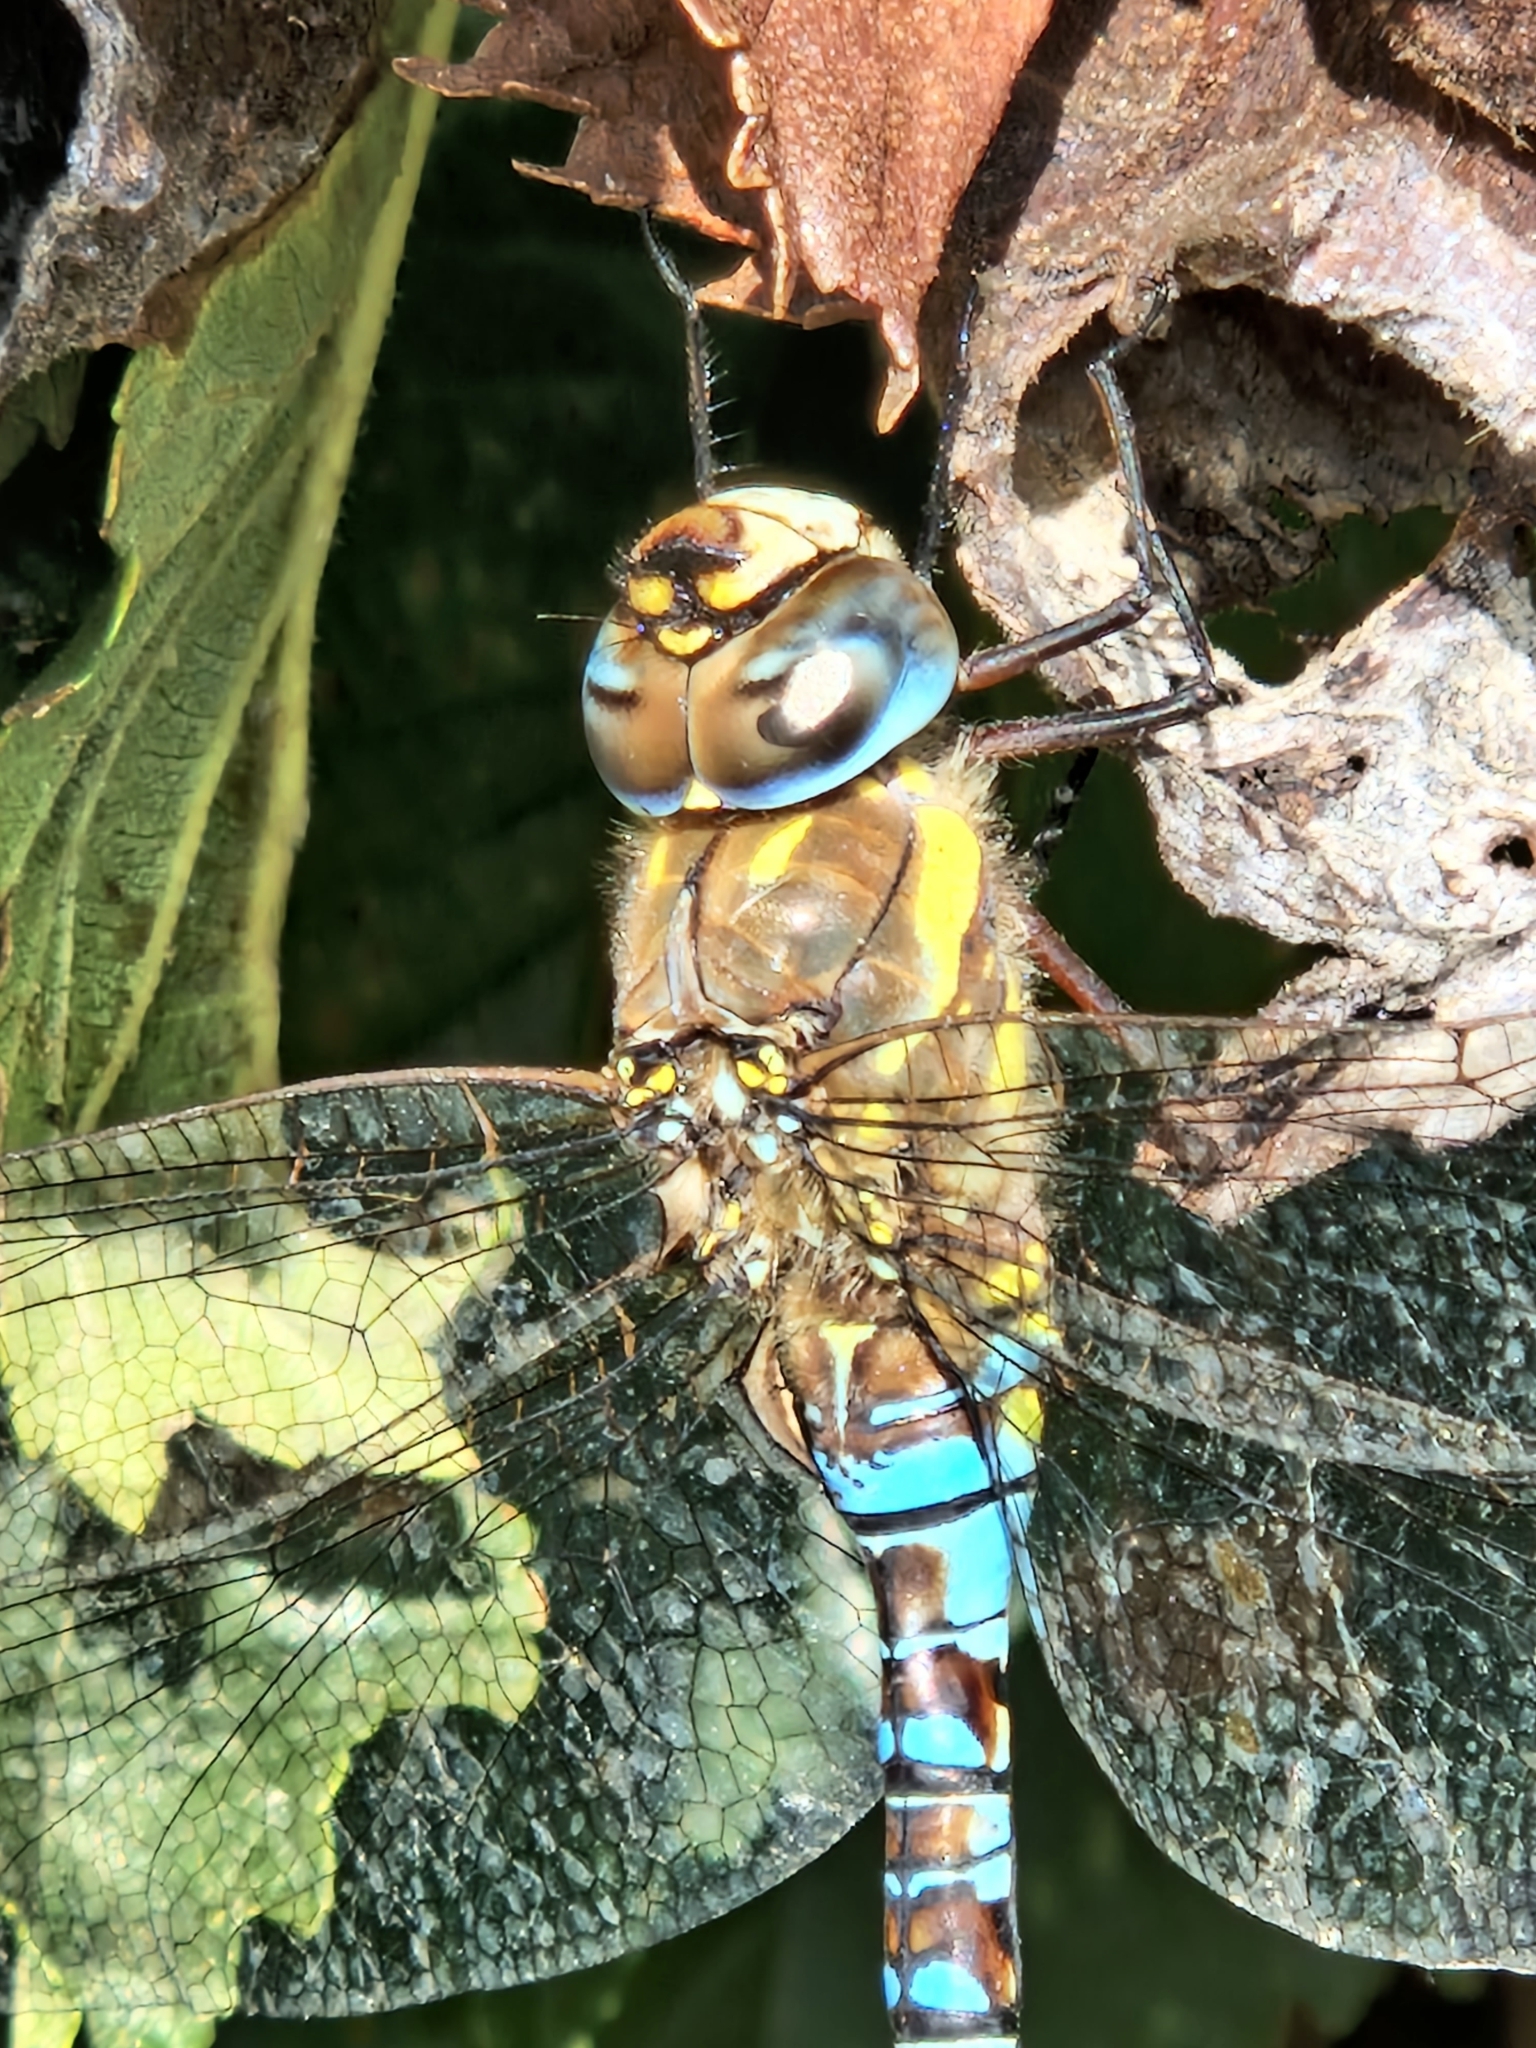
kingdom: Animalia
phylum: Arthropoda
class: Insecta
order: Odonata
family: Aeshnidae
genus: Aeshna
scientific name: Aeshna mixta
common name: Migrant hawker
